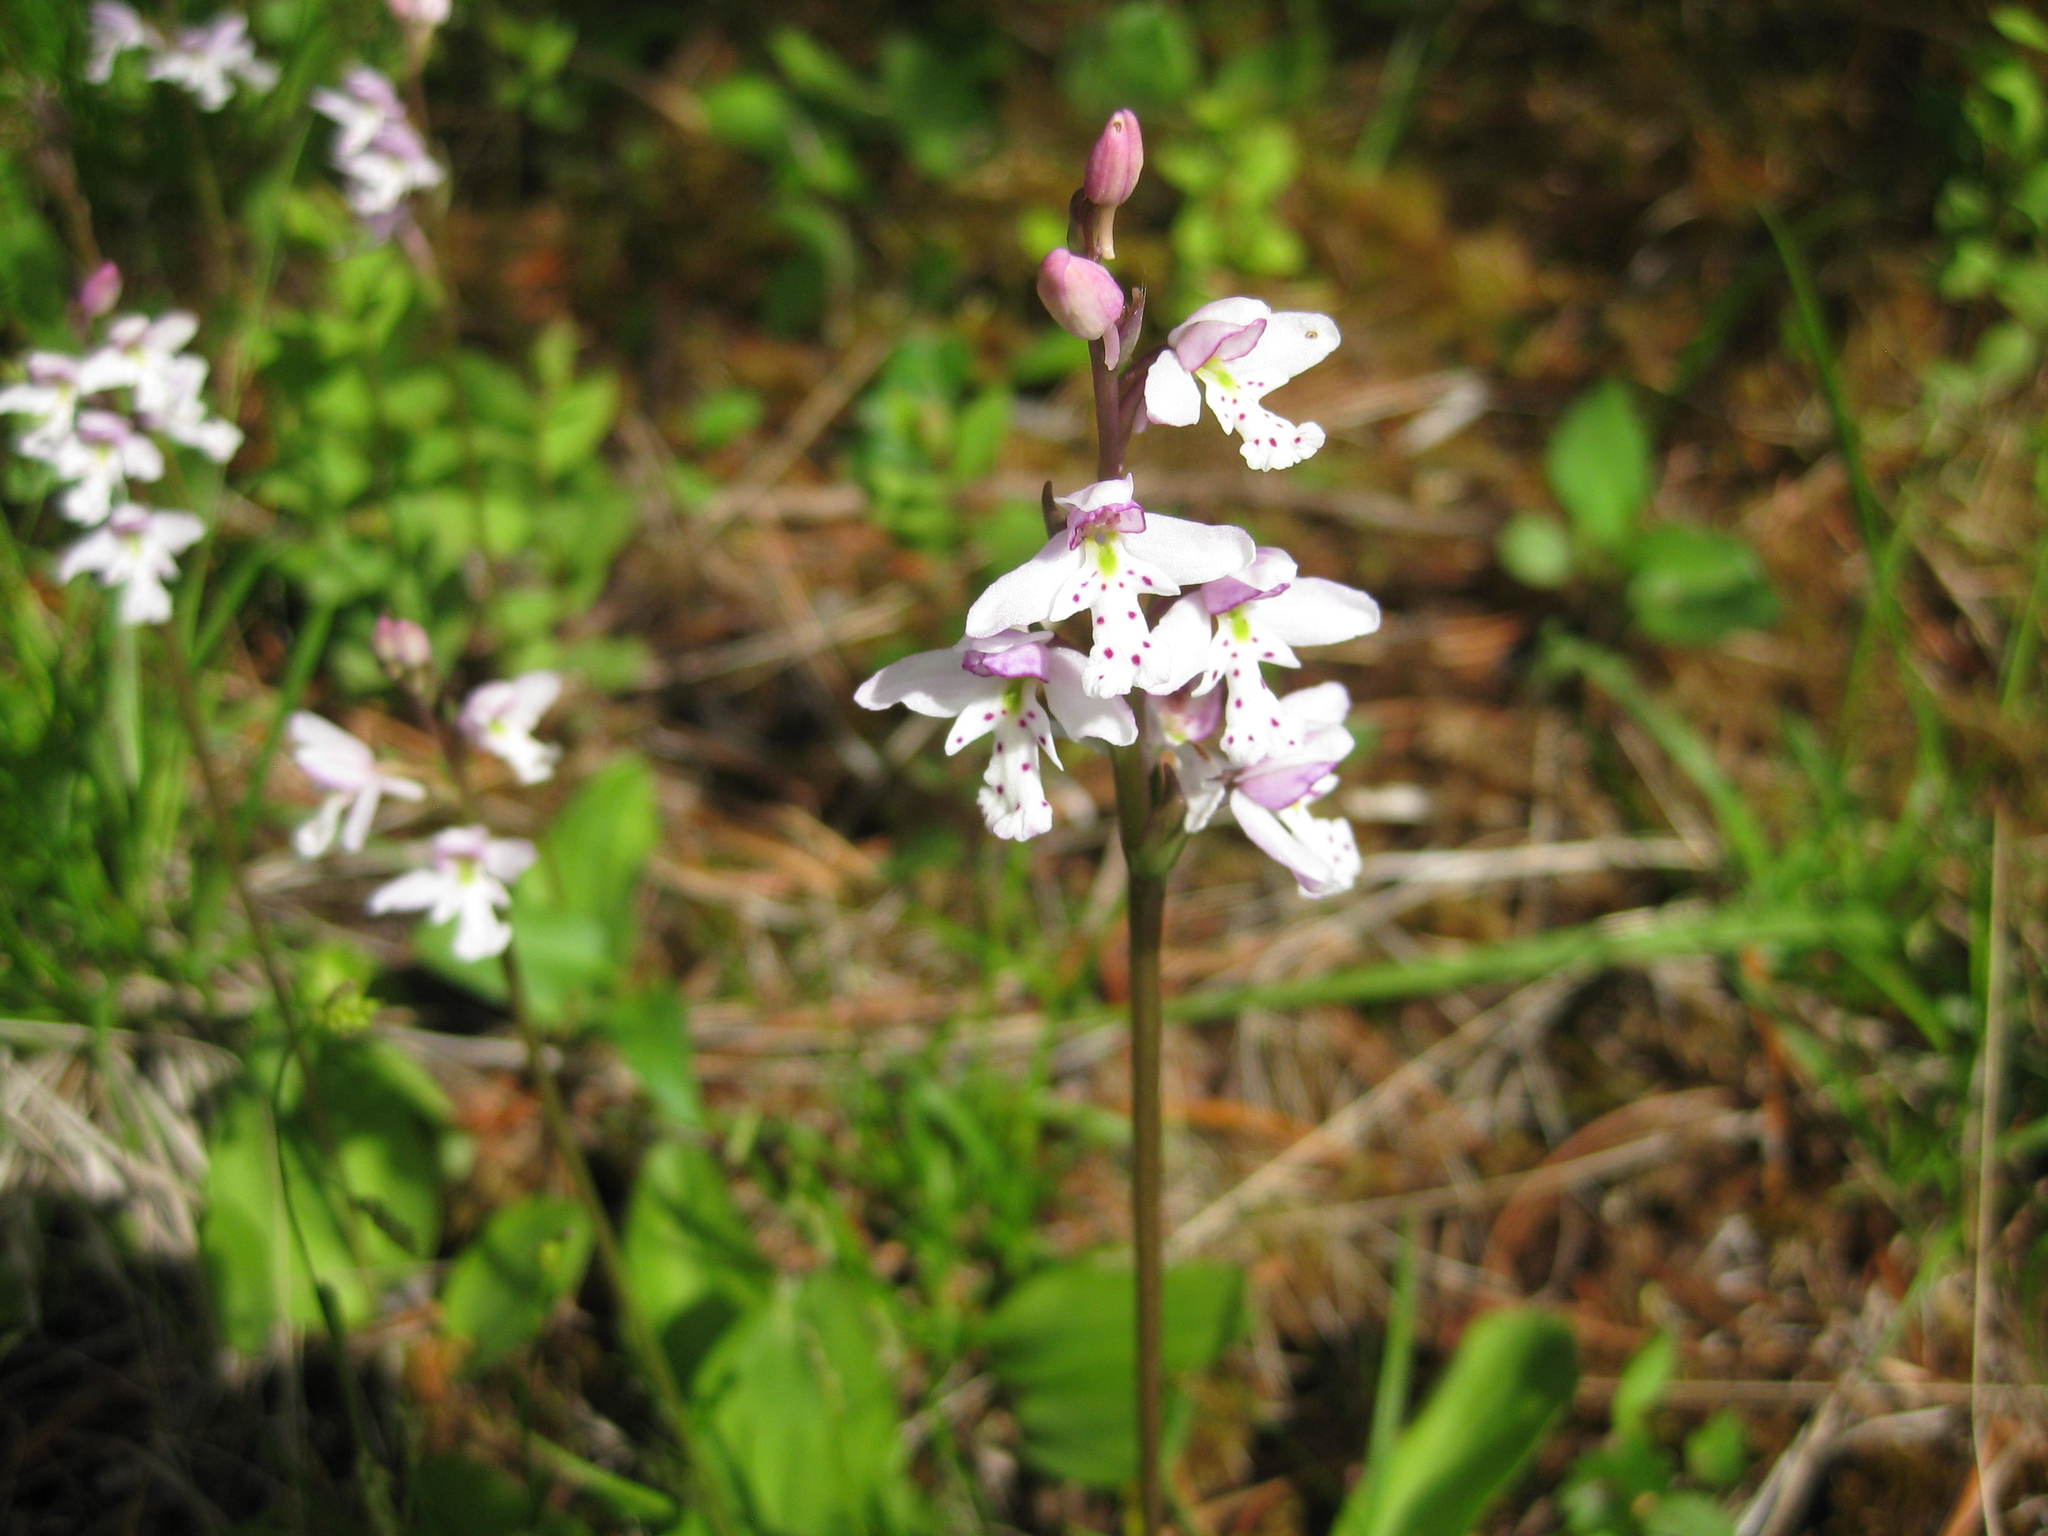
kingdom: Plantae
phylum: Tracheophyta
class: Liliopsida
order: Asparagales
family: Orchidaceae
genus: Galearis
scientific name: Galearis rotundifolia
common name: One-leaved orchis
